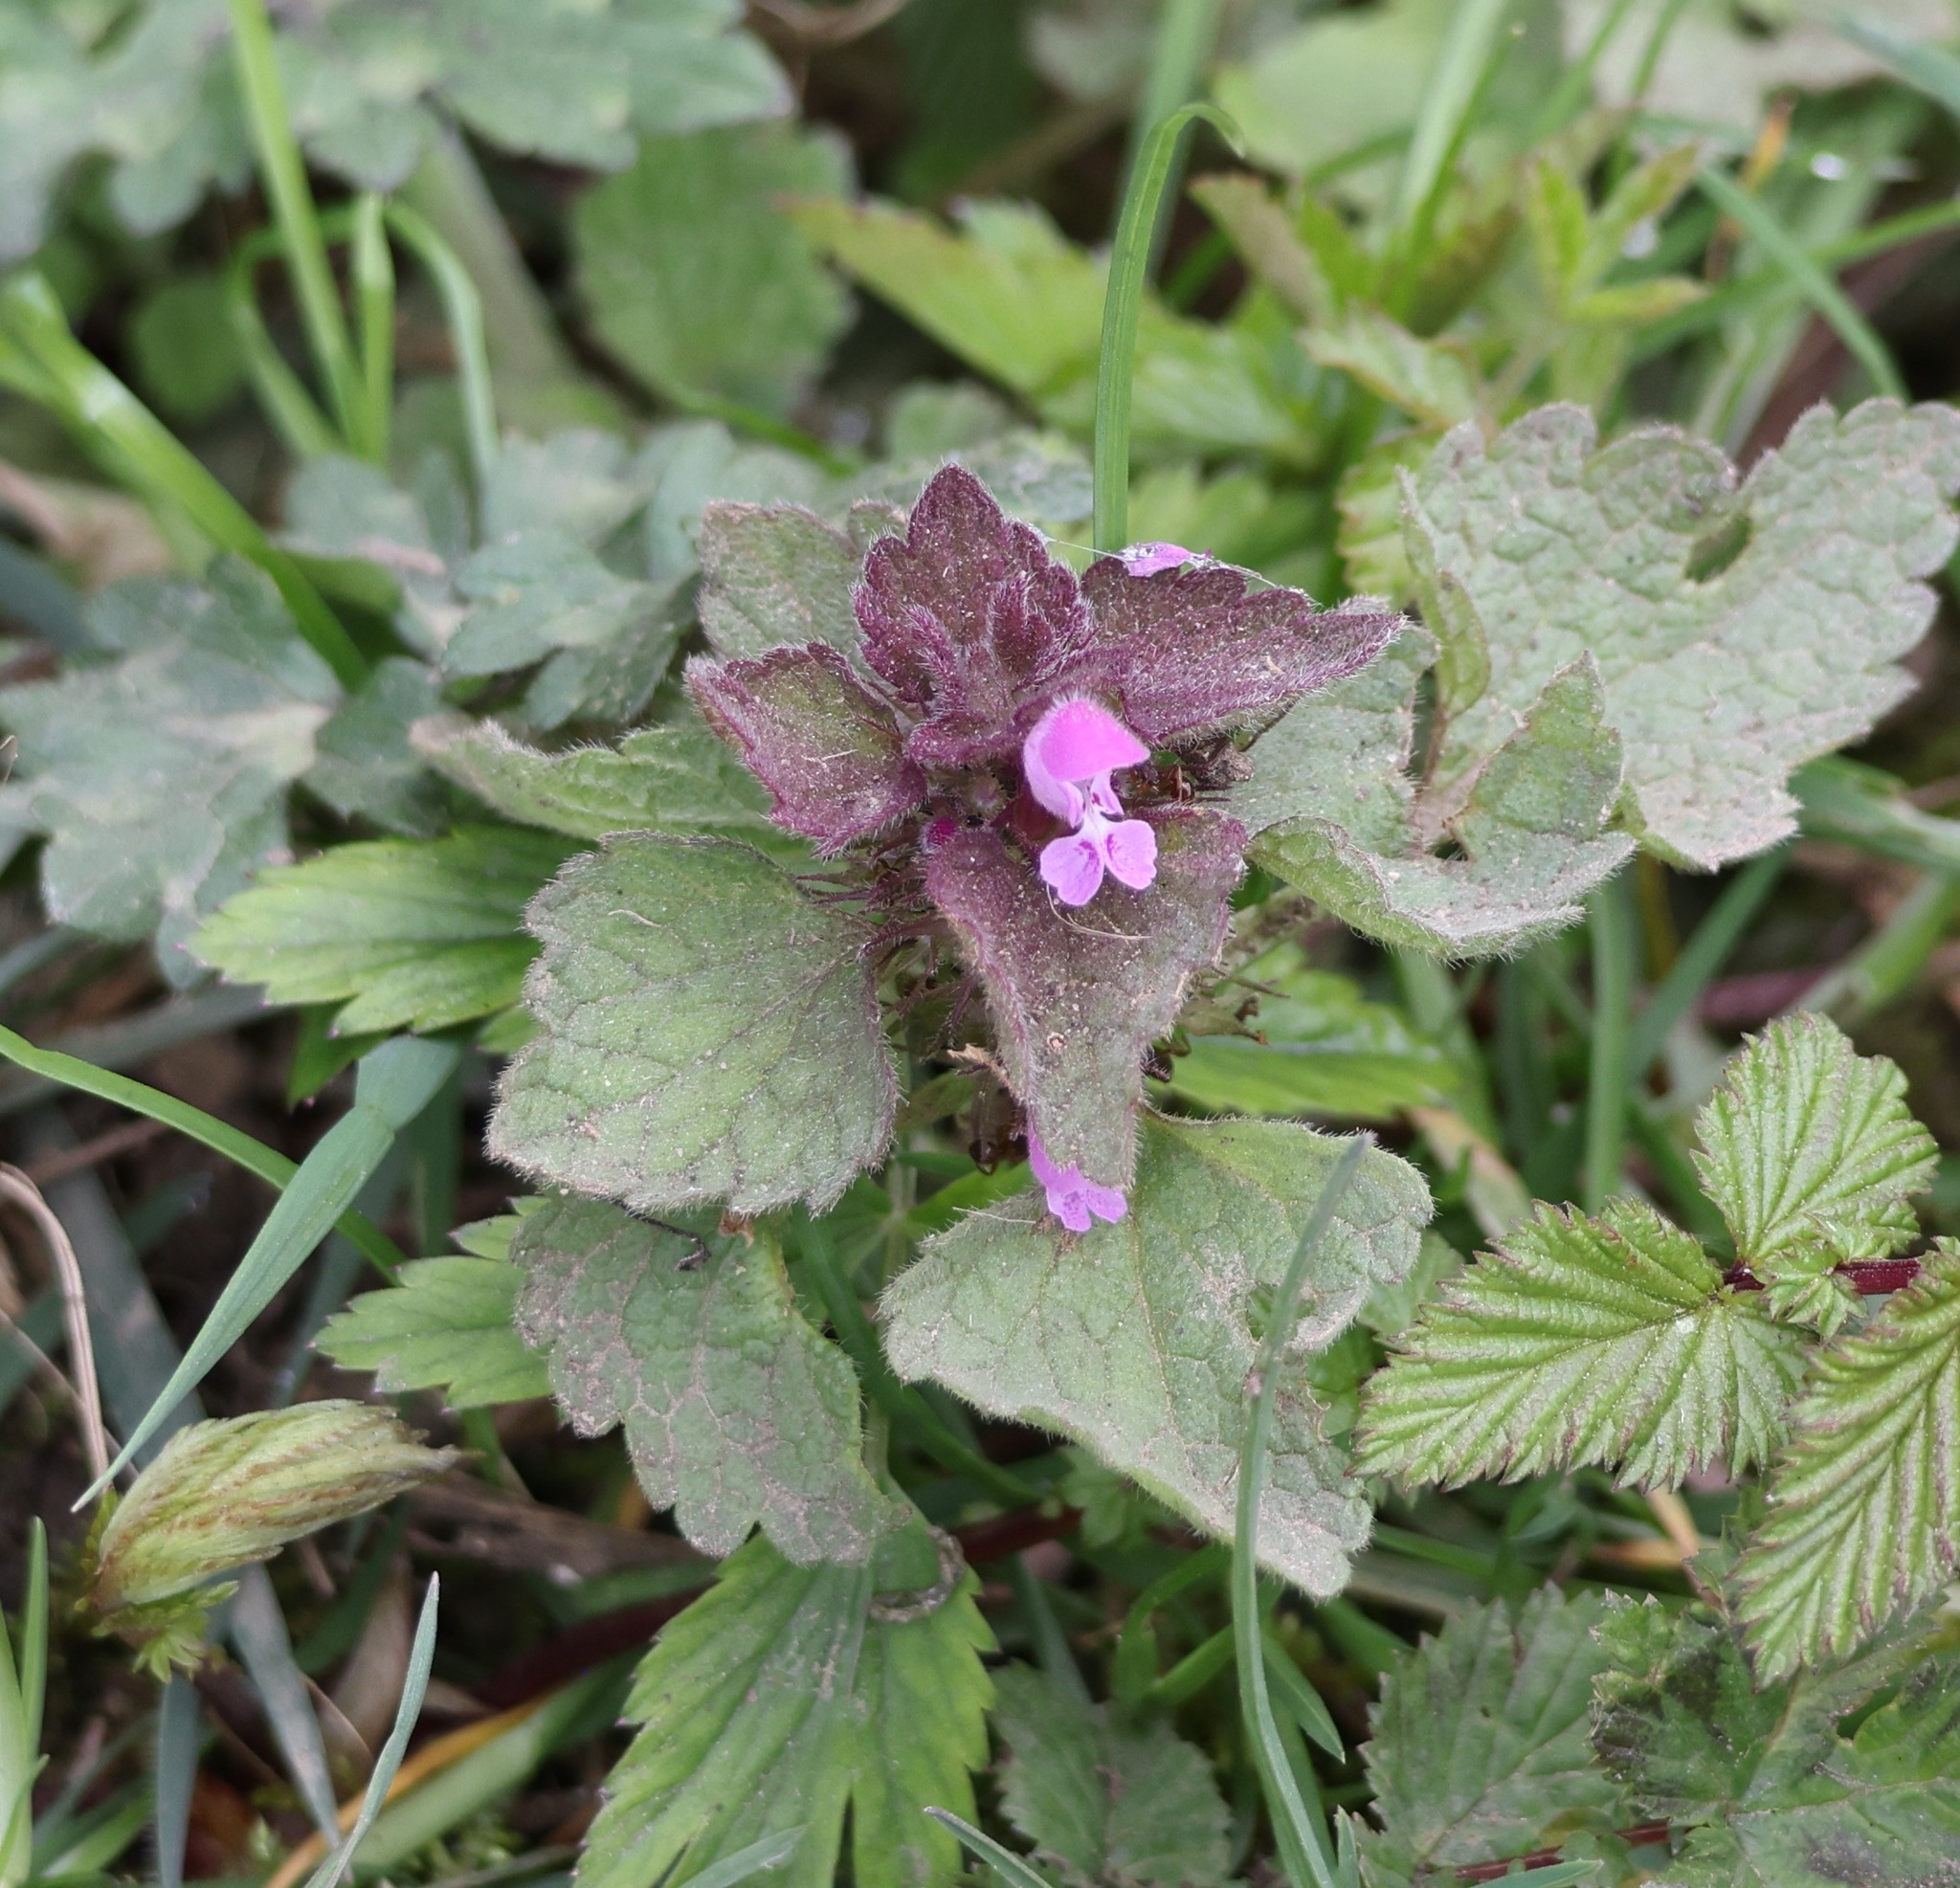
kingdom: Plantae
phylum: Tracheophyta
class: Magnoliopsida
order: Lamiales
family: Lamiaceae
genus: Lamium
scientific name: Lamium purpureum
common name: Red dead-nettle
